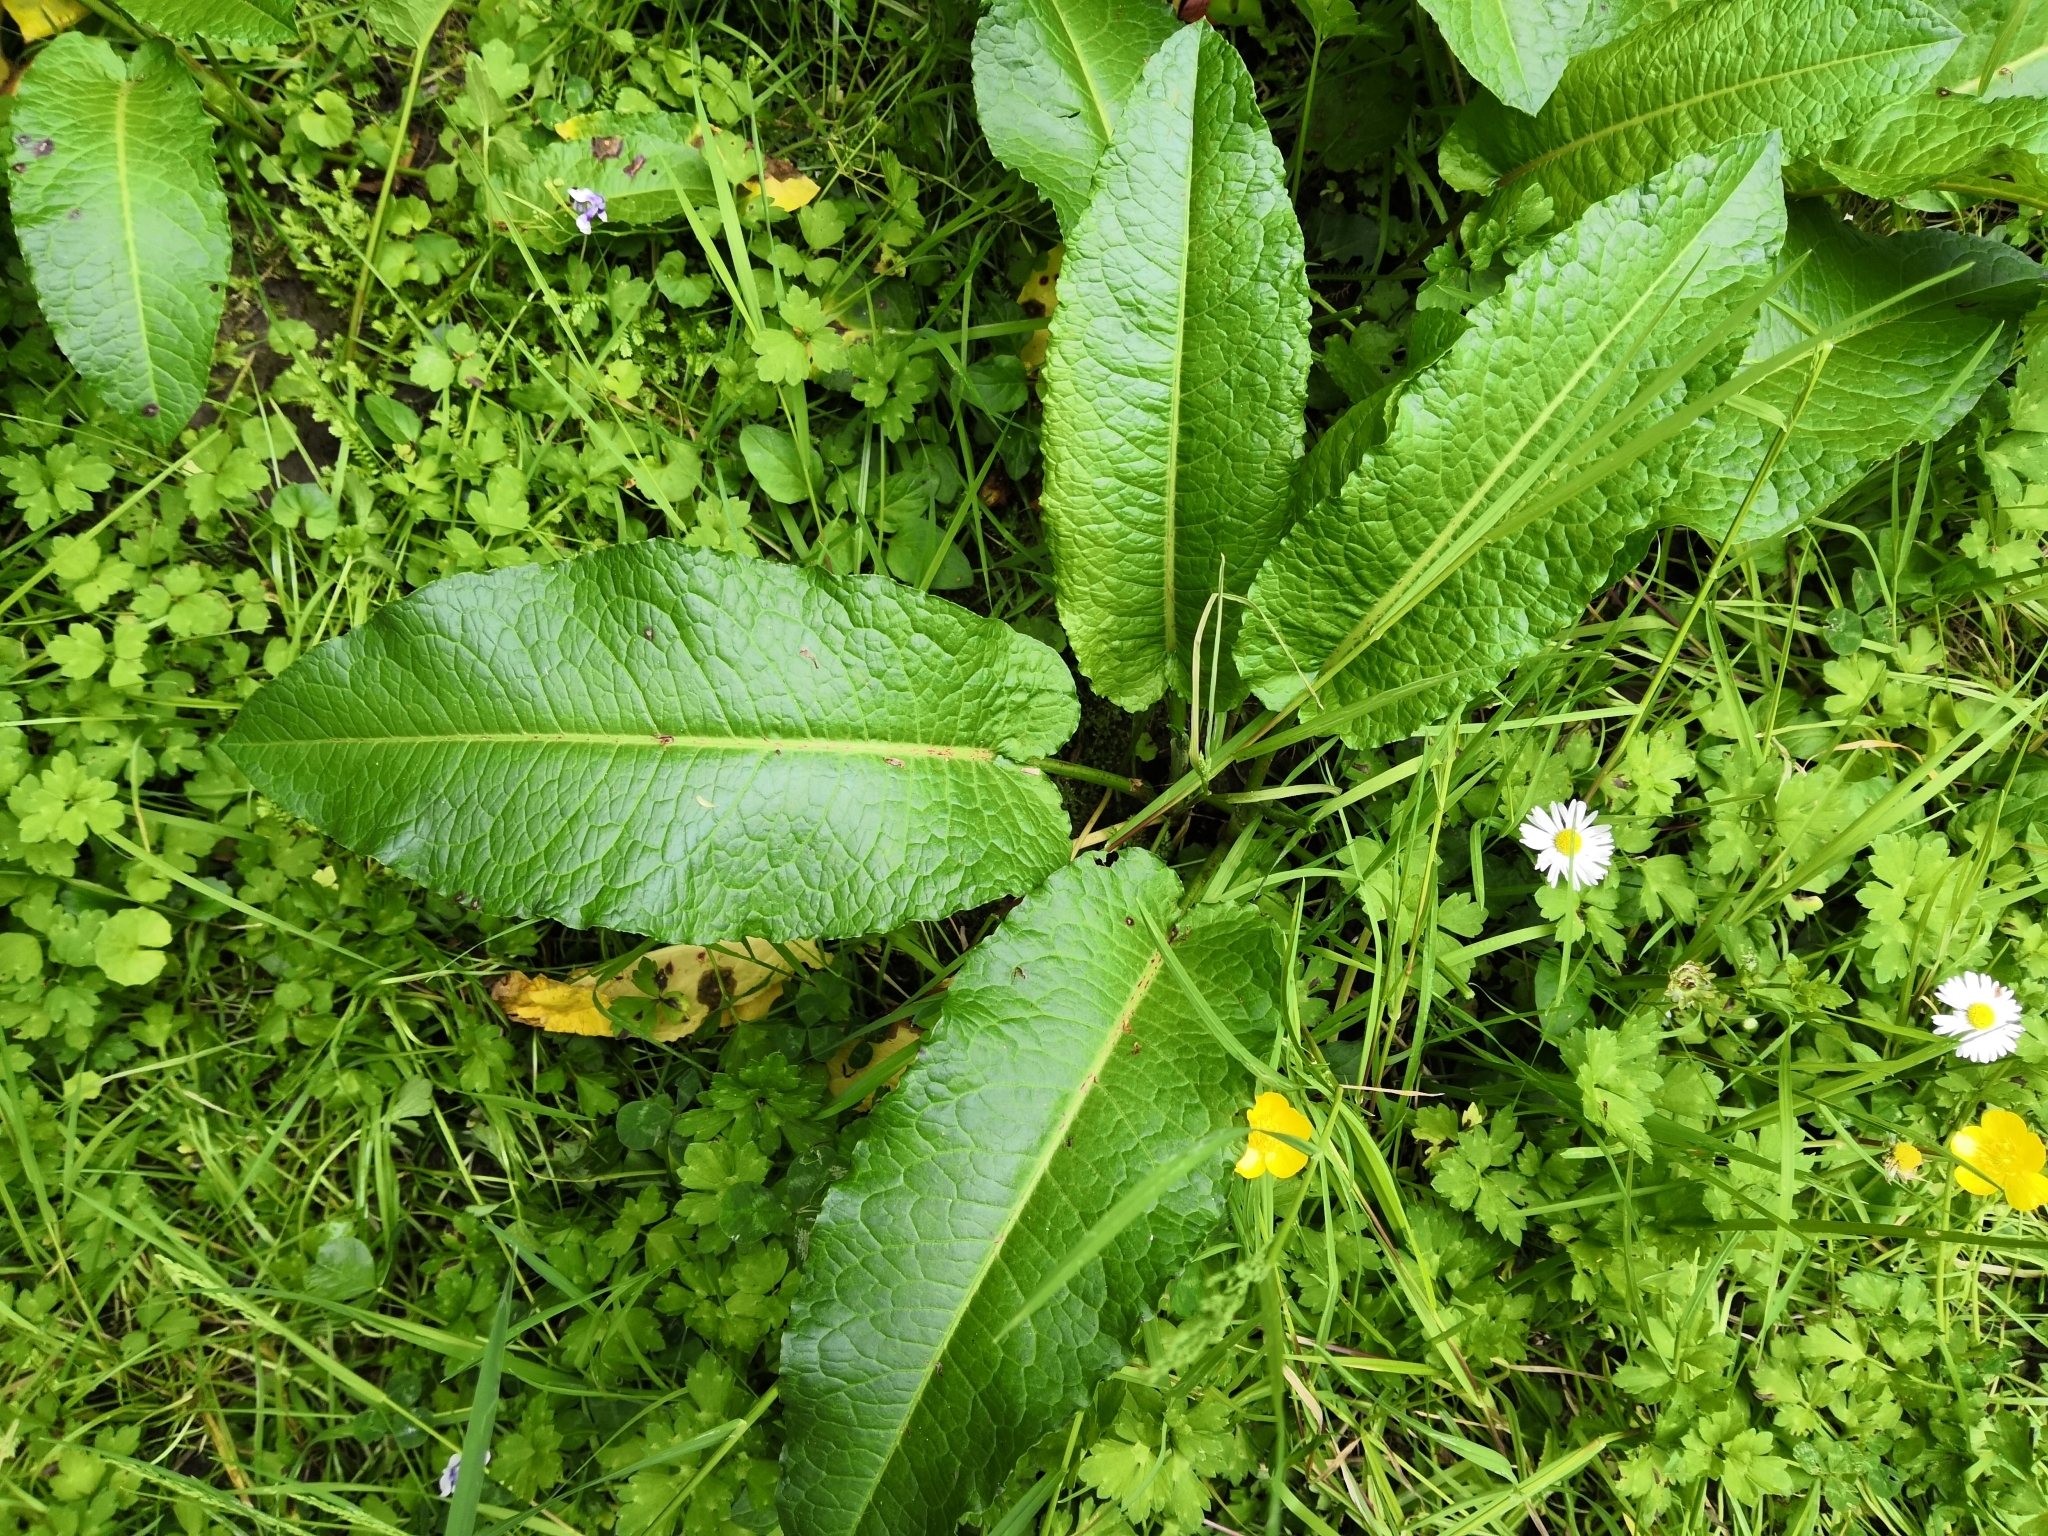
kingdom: Plantae
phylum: Tracheophyta
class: Magnoliopsida
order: Caryophyllales
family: Polygonaceae
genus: Rumex
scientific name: Rumex obtusifolius
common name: Bitter dock
